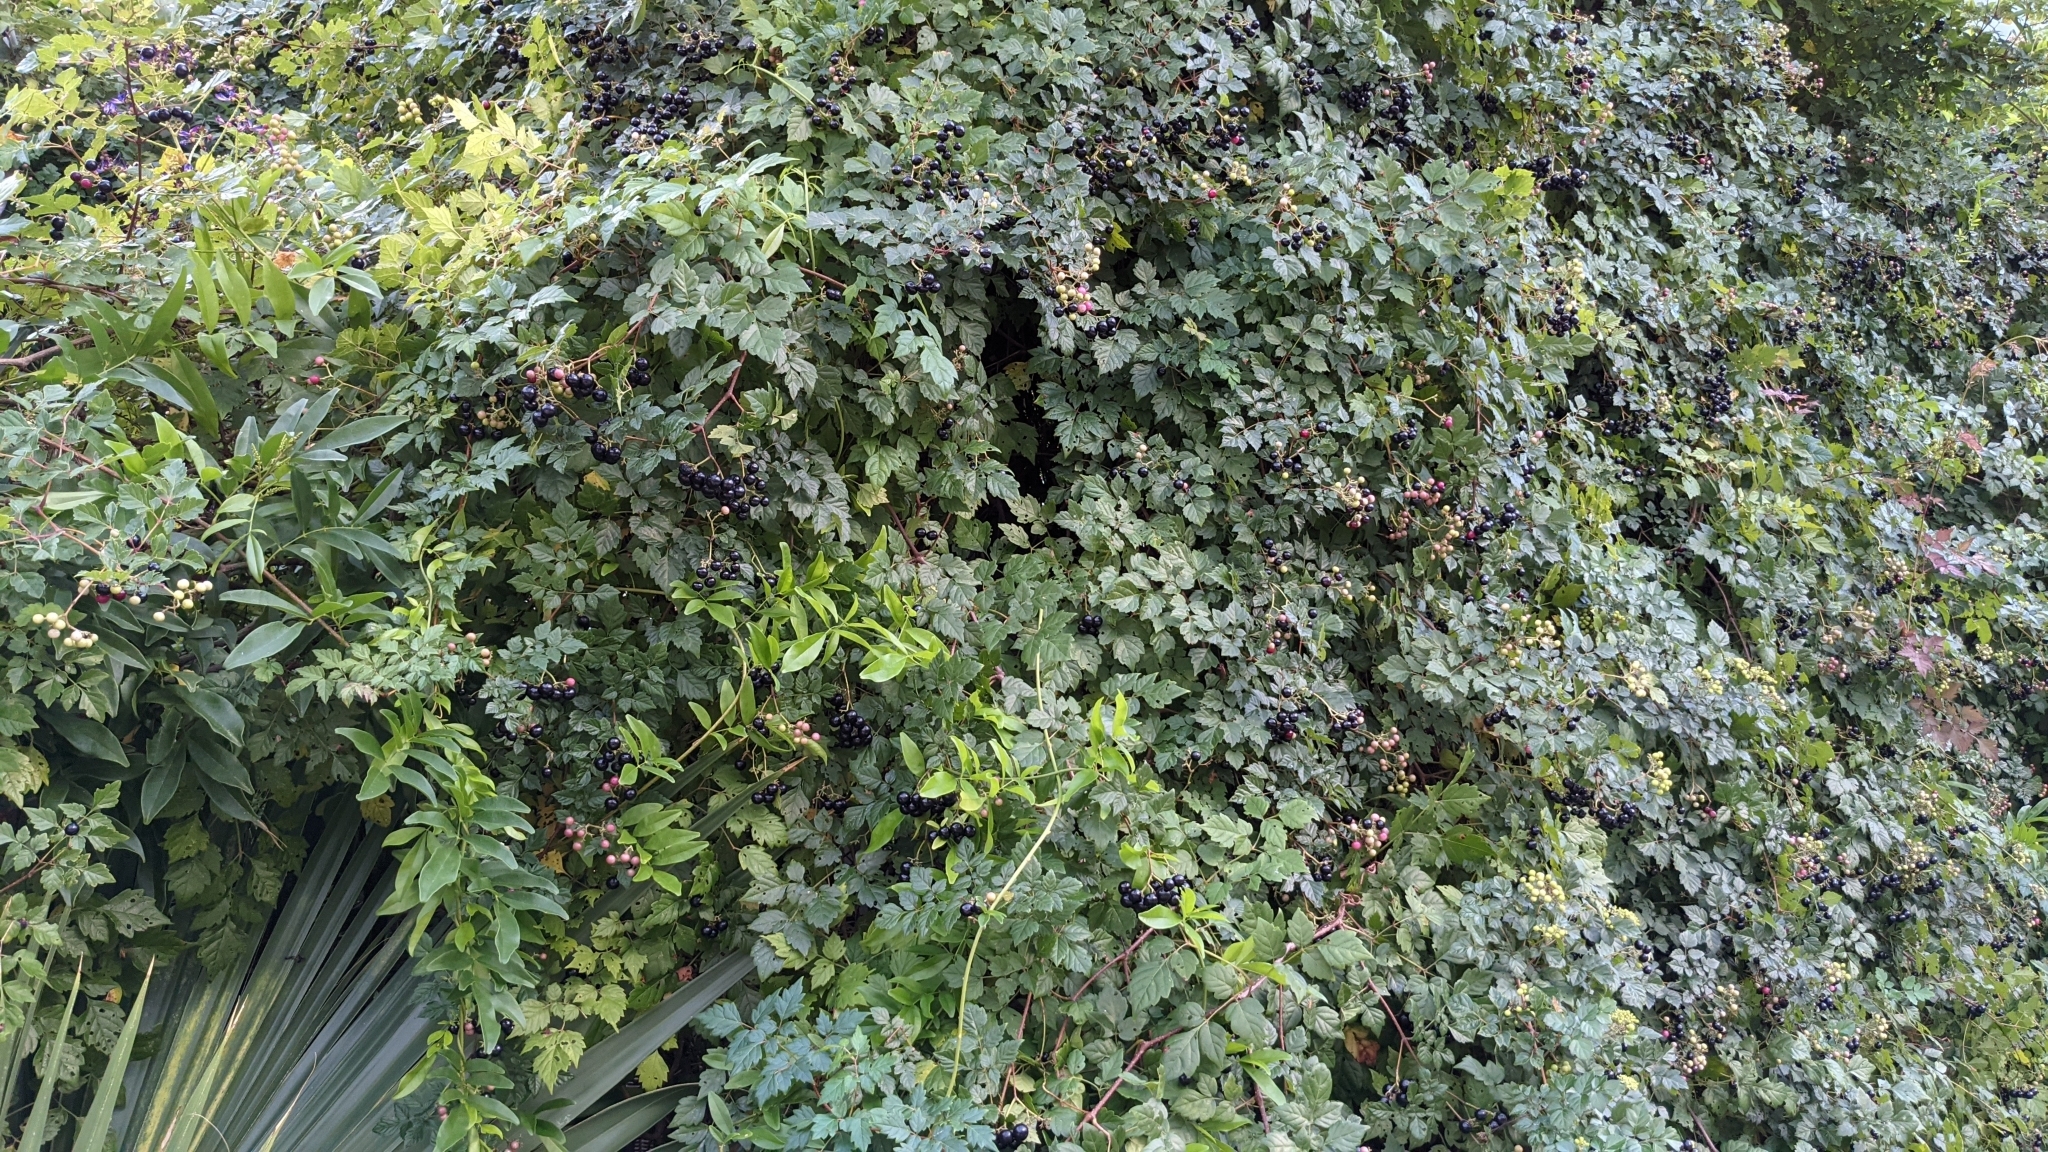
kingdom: Plantae
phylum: Tracheophyta
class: Magnoliopsida
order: Vitales
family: Vitaceae
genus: Nekemias
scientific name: Nekemias arborea
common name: Peppervine
